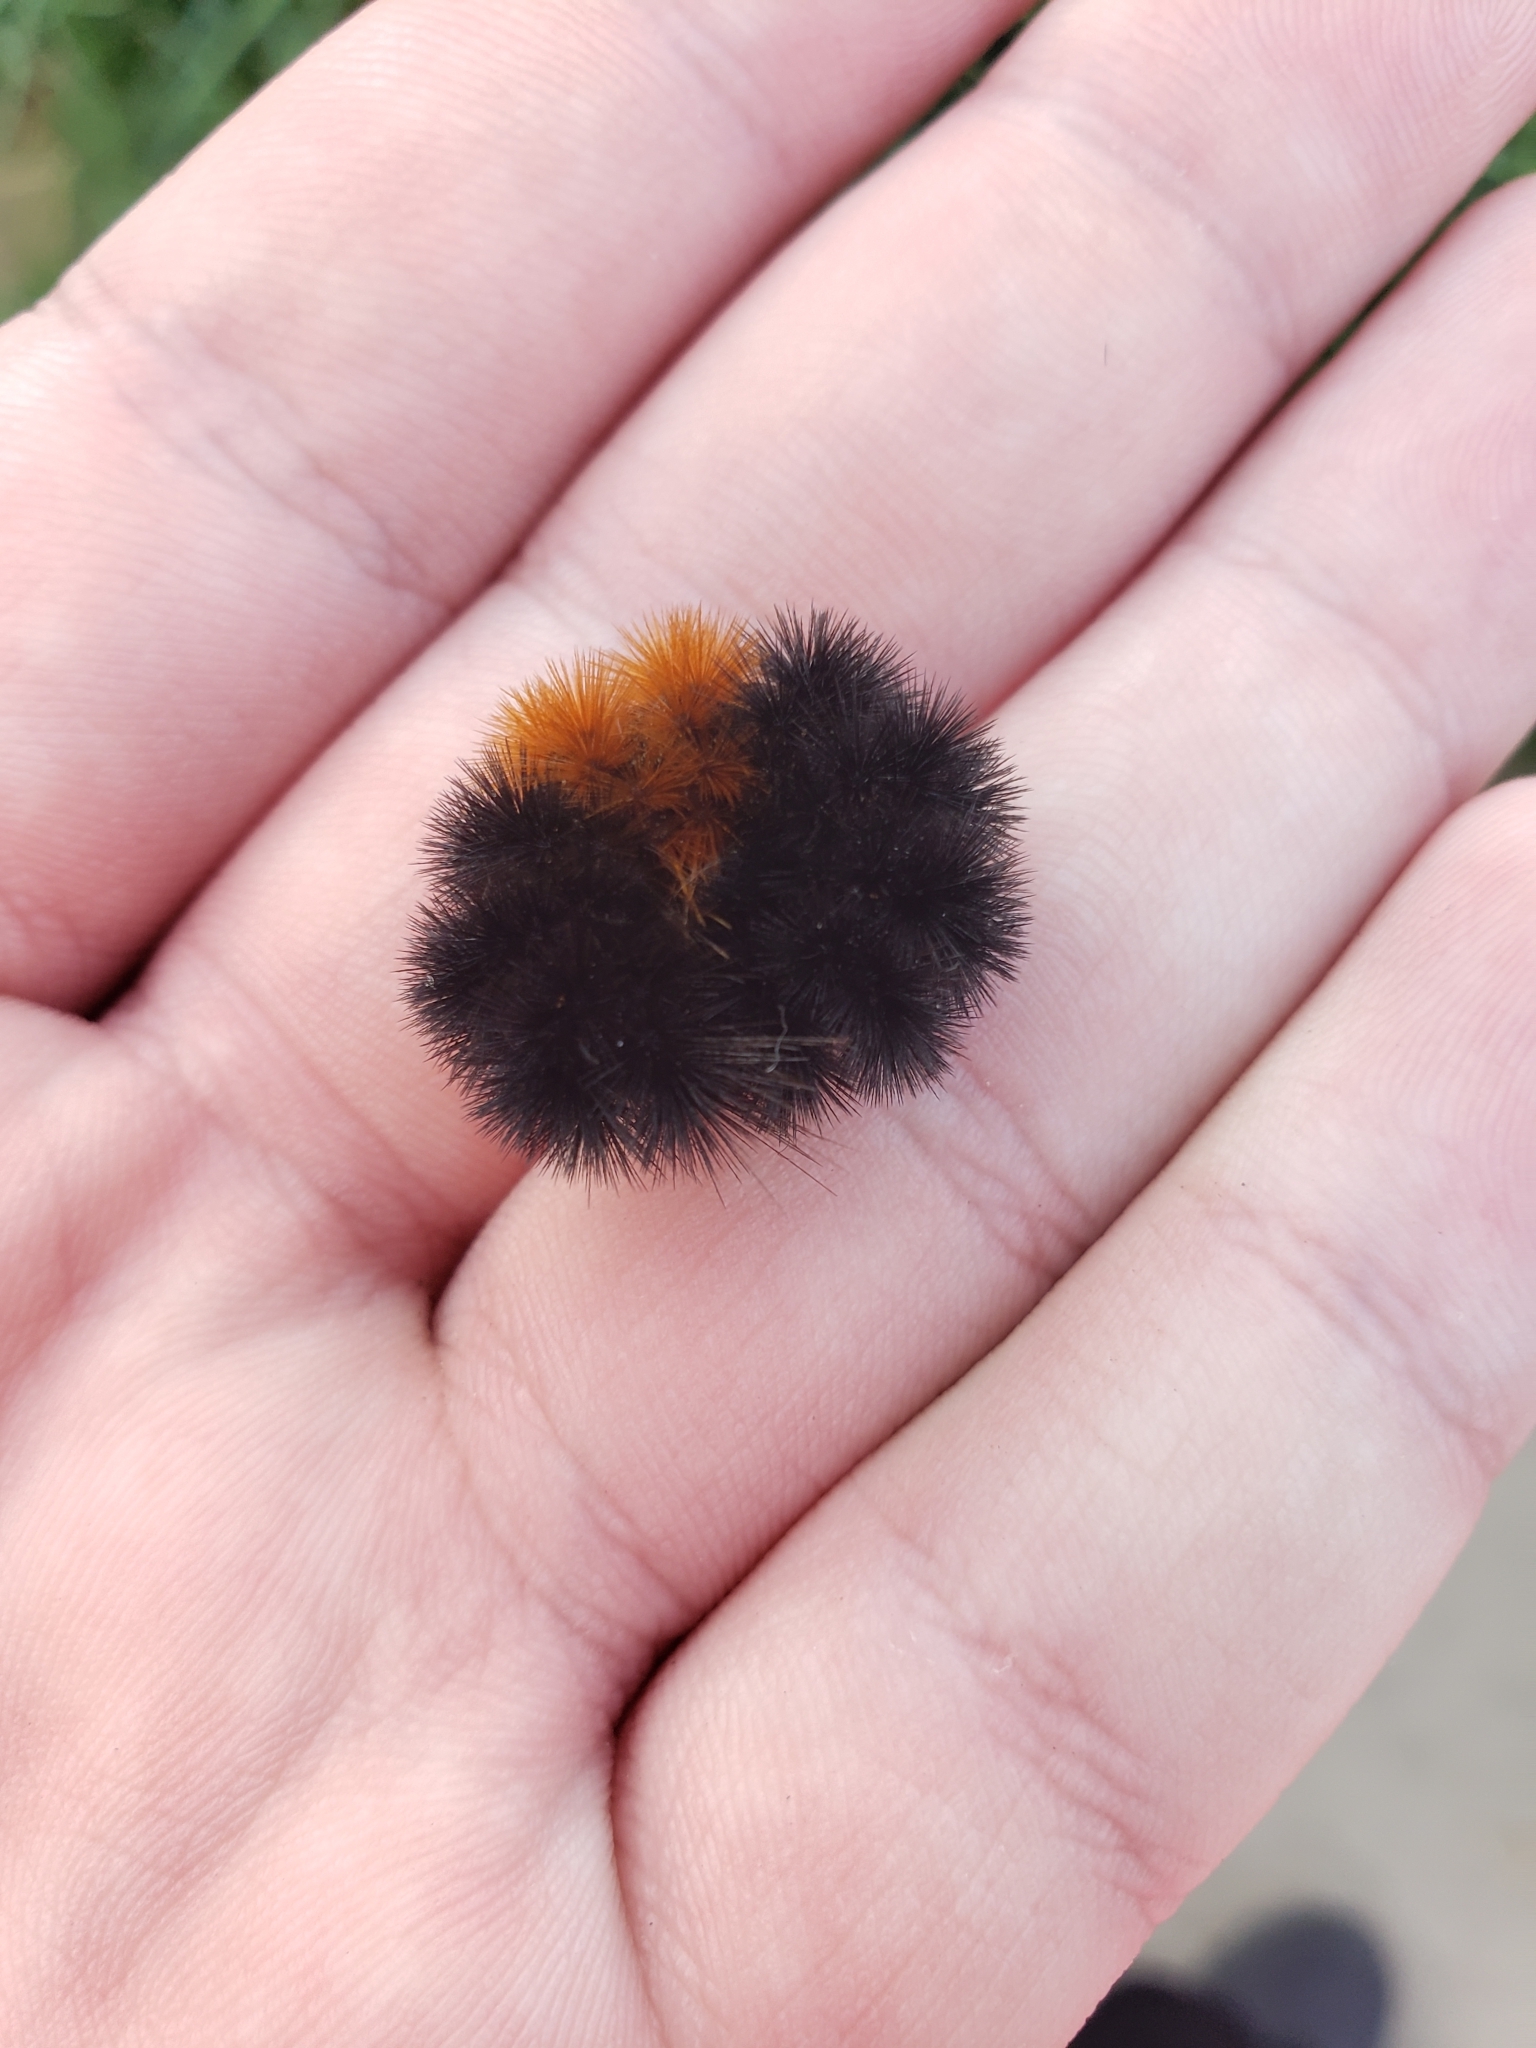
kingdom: Animalia
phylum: Arthropoda
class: Insecta
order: Lepidoptera
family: Erebidae
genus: Pyrrharctia
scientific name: Pyrrharctia isabella
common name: Isabella tiger moth
